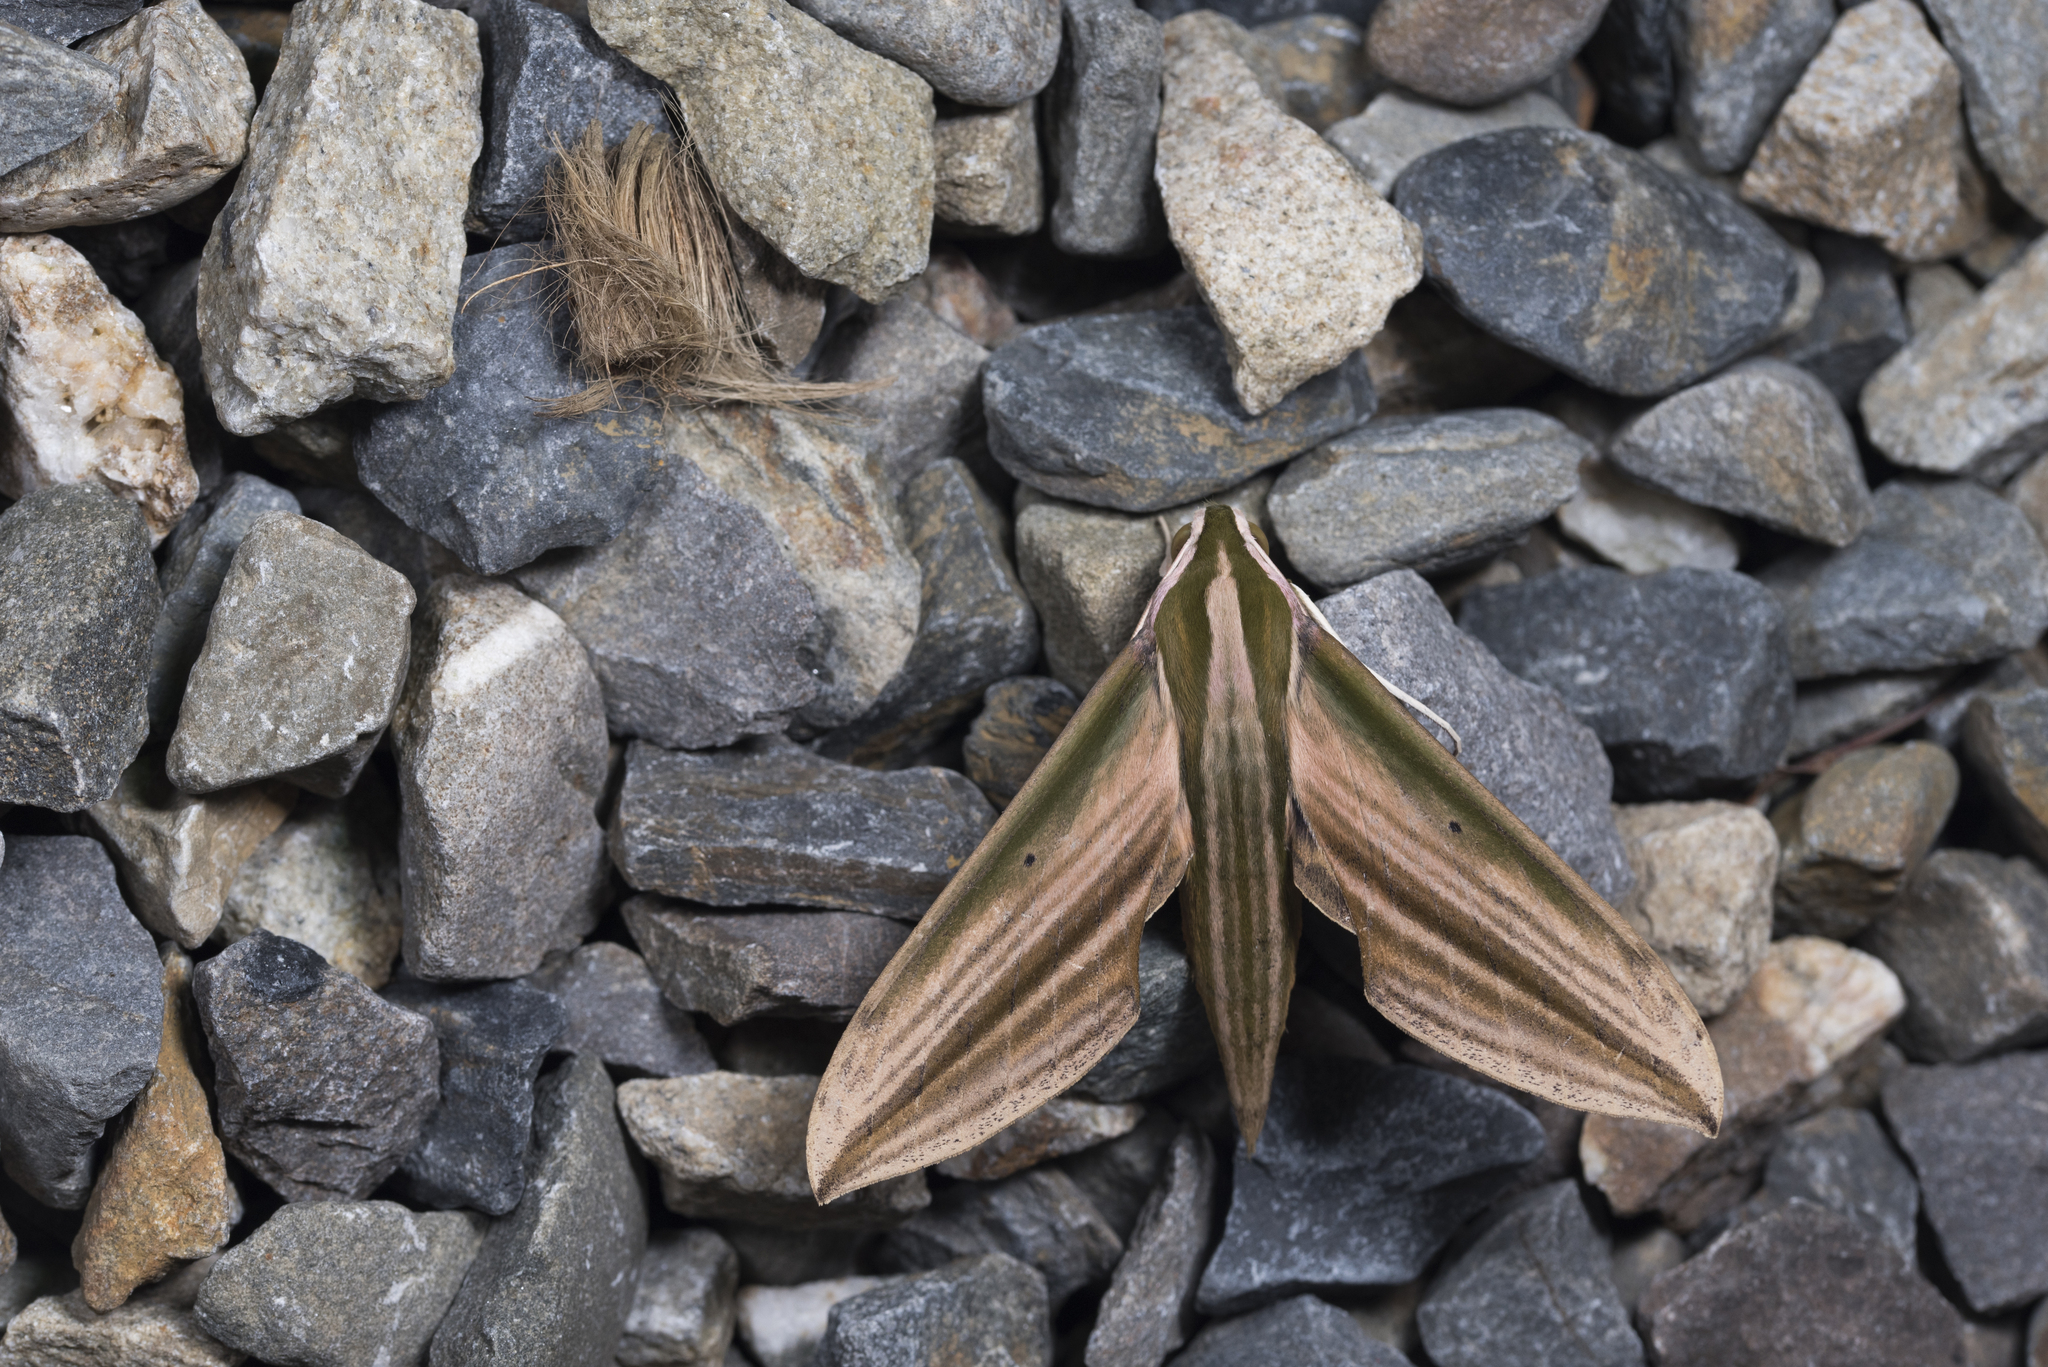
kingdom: Animalia
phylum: Arthropoda
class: Insecta
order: Lepidoptera
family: Sphingidae
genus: Cechetra
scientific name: Cechetra lineosa
